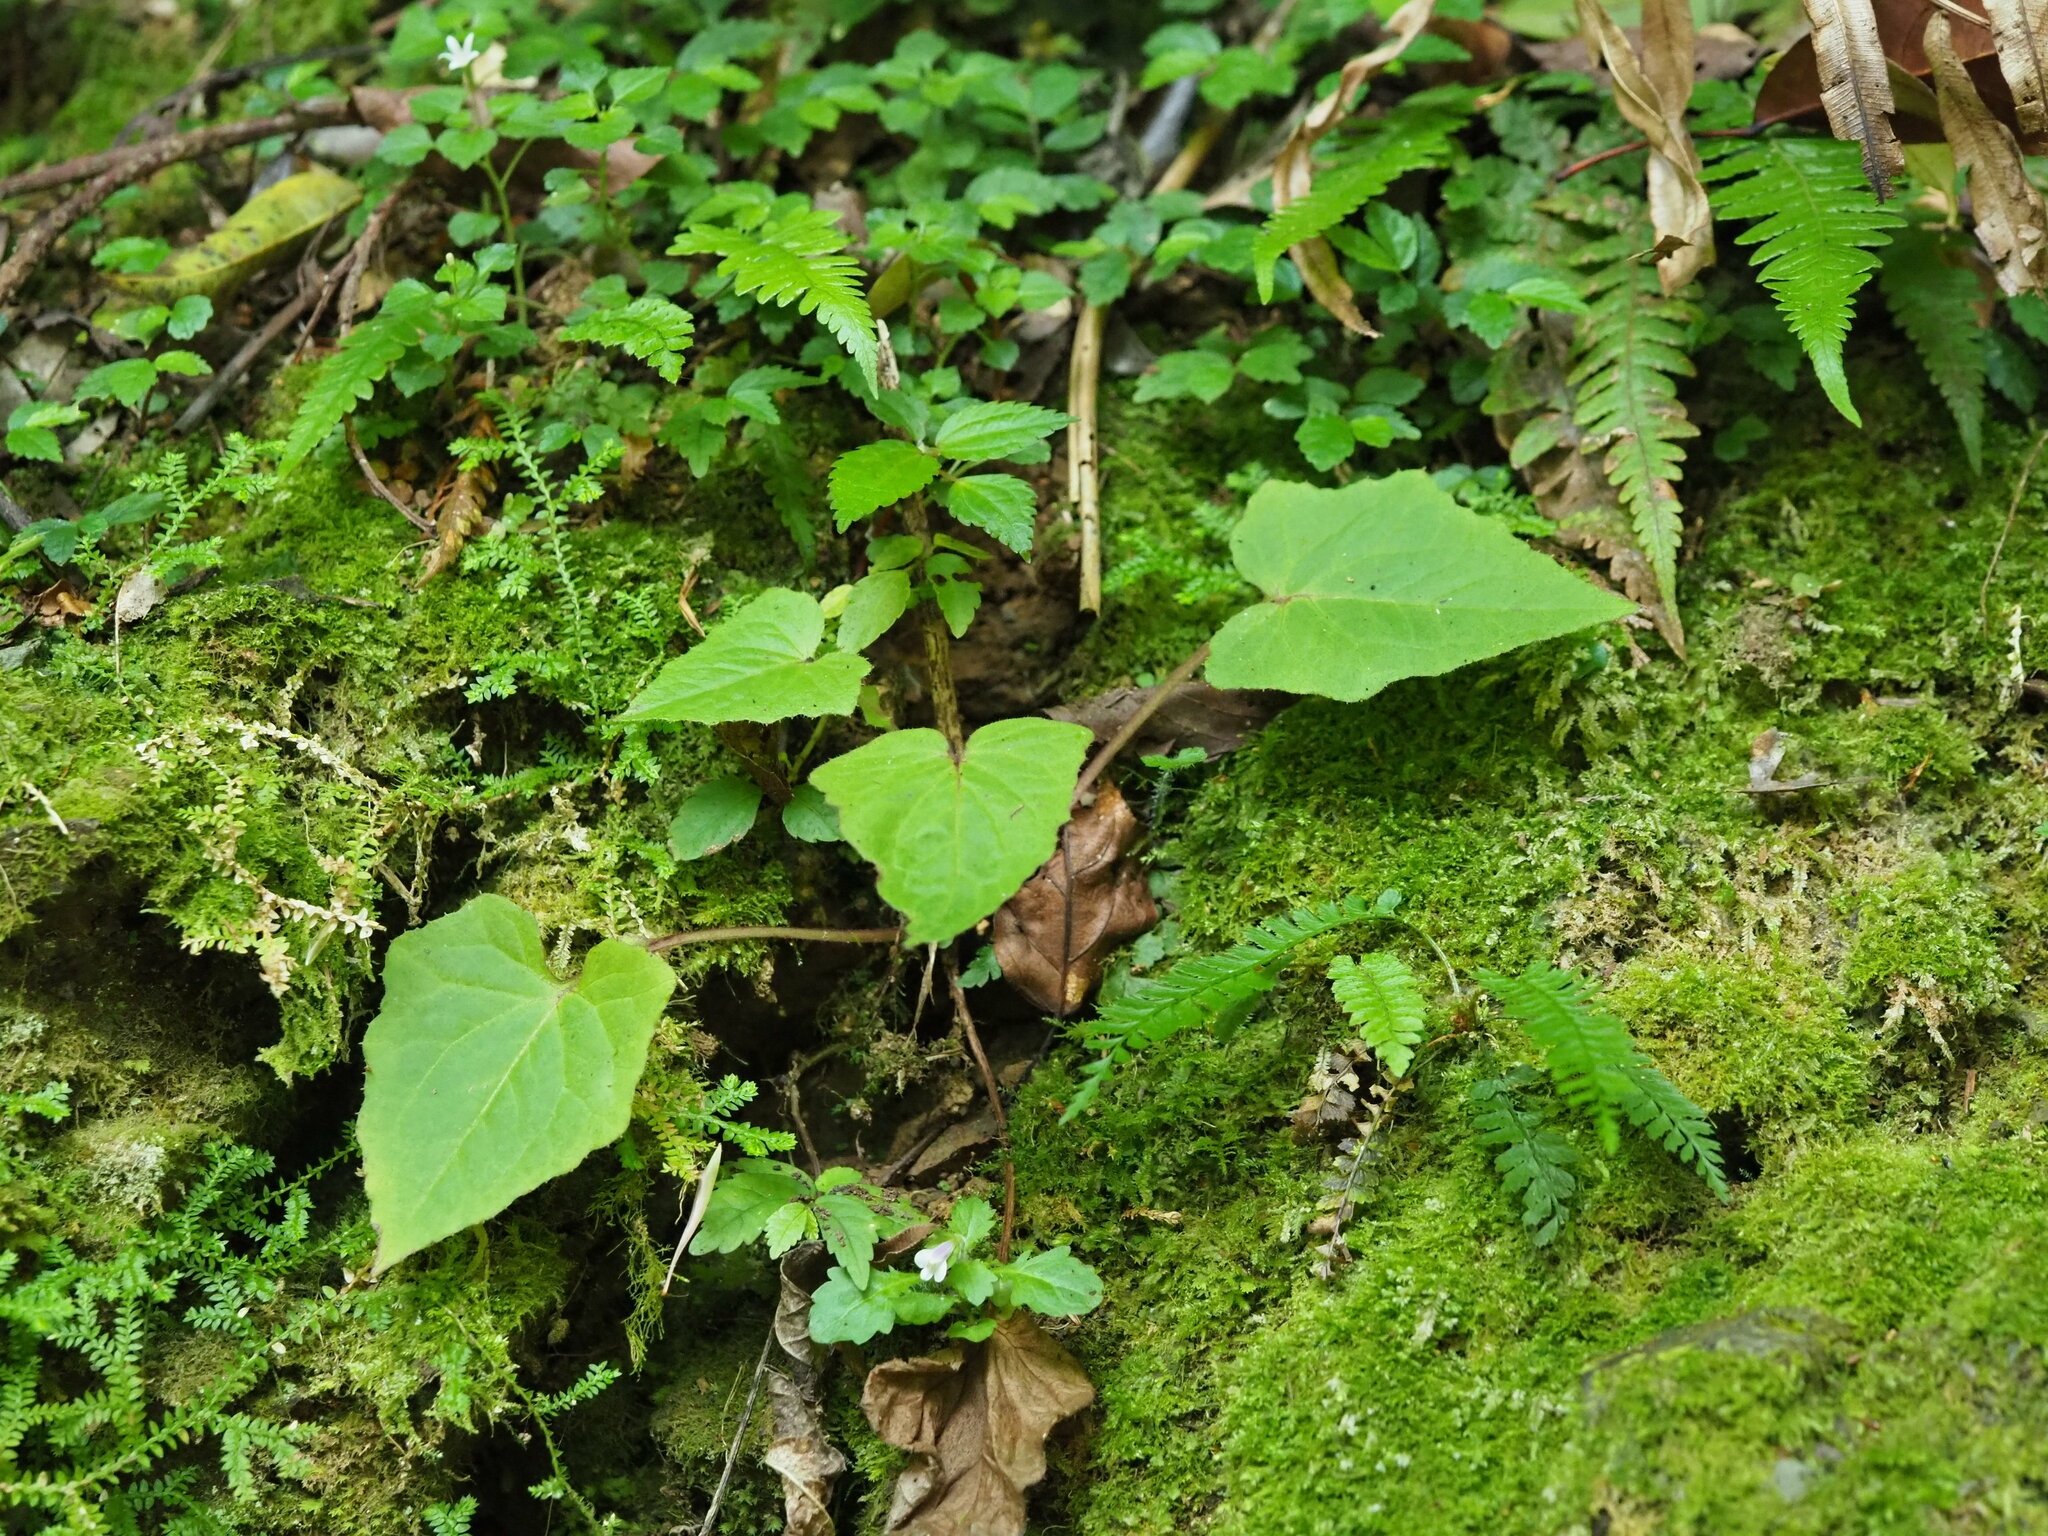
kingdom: Plantae
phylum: Tracheophyta
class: Magnoliopsida
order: Asterales
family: Asteraceae
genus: Paraprenanthes
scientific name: Paraprenanthes sororia
